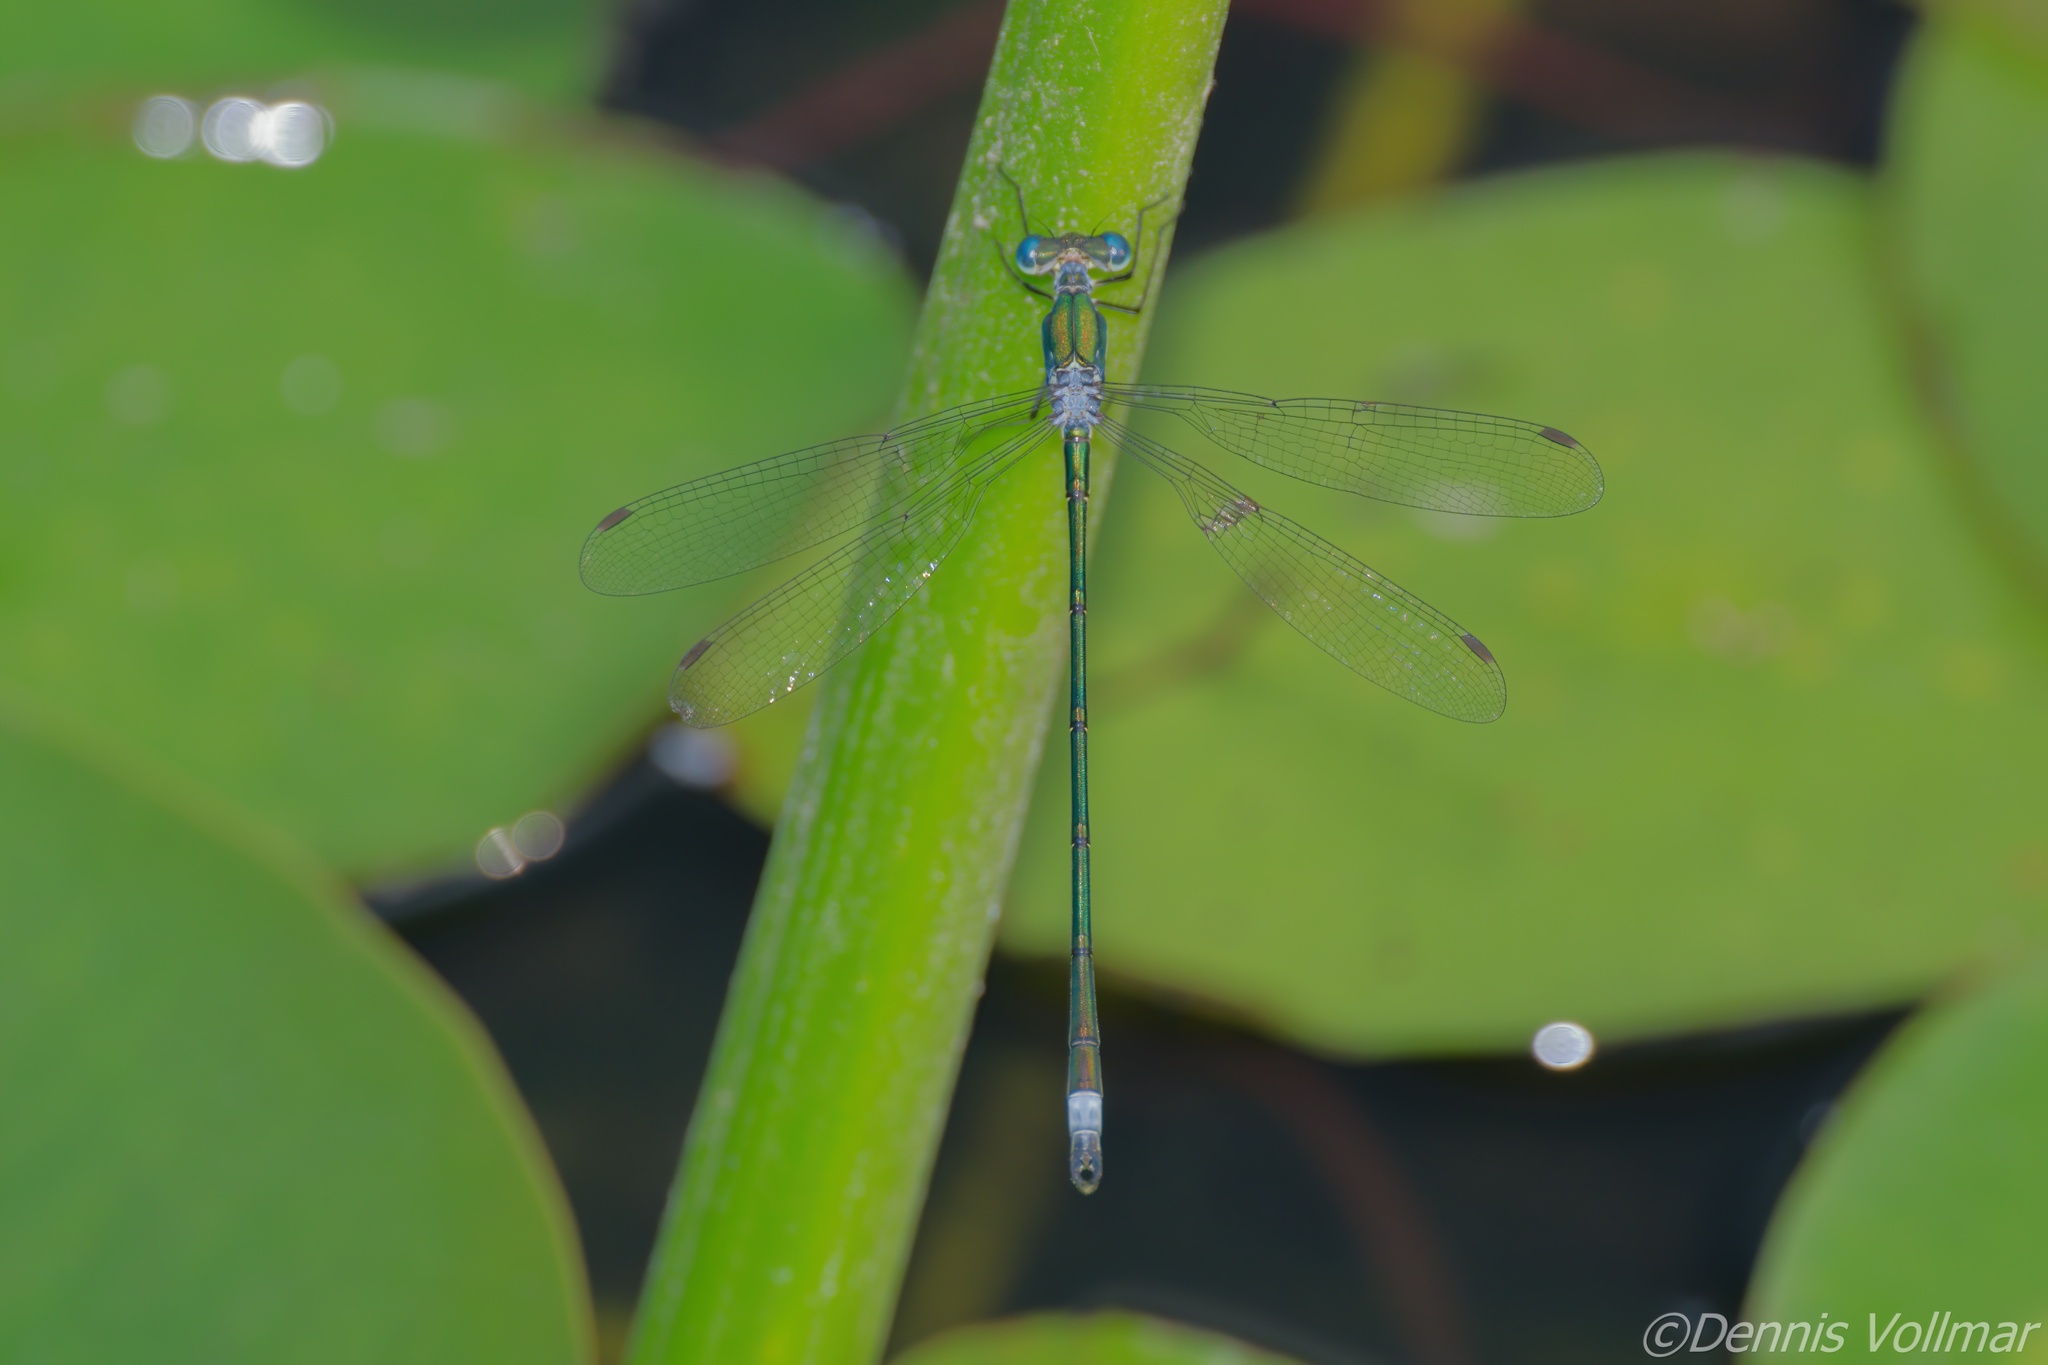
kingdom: Animalia
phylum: Arthropoda
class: Insecta
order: Odonata
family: Lestidae
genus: Lestes
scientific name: Lestes inaequalis
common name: Elegant spreadwing
